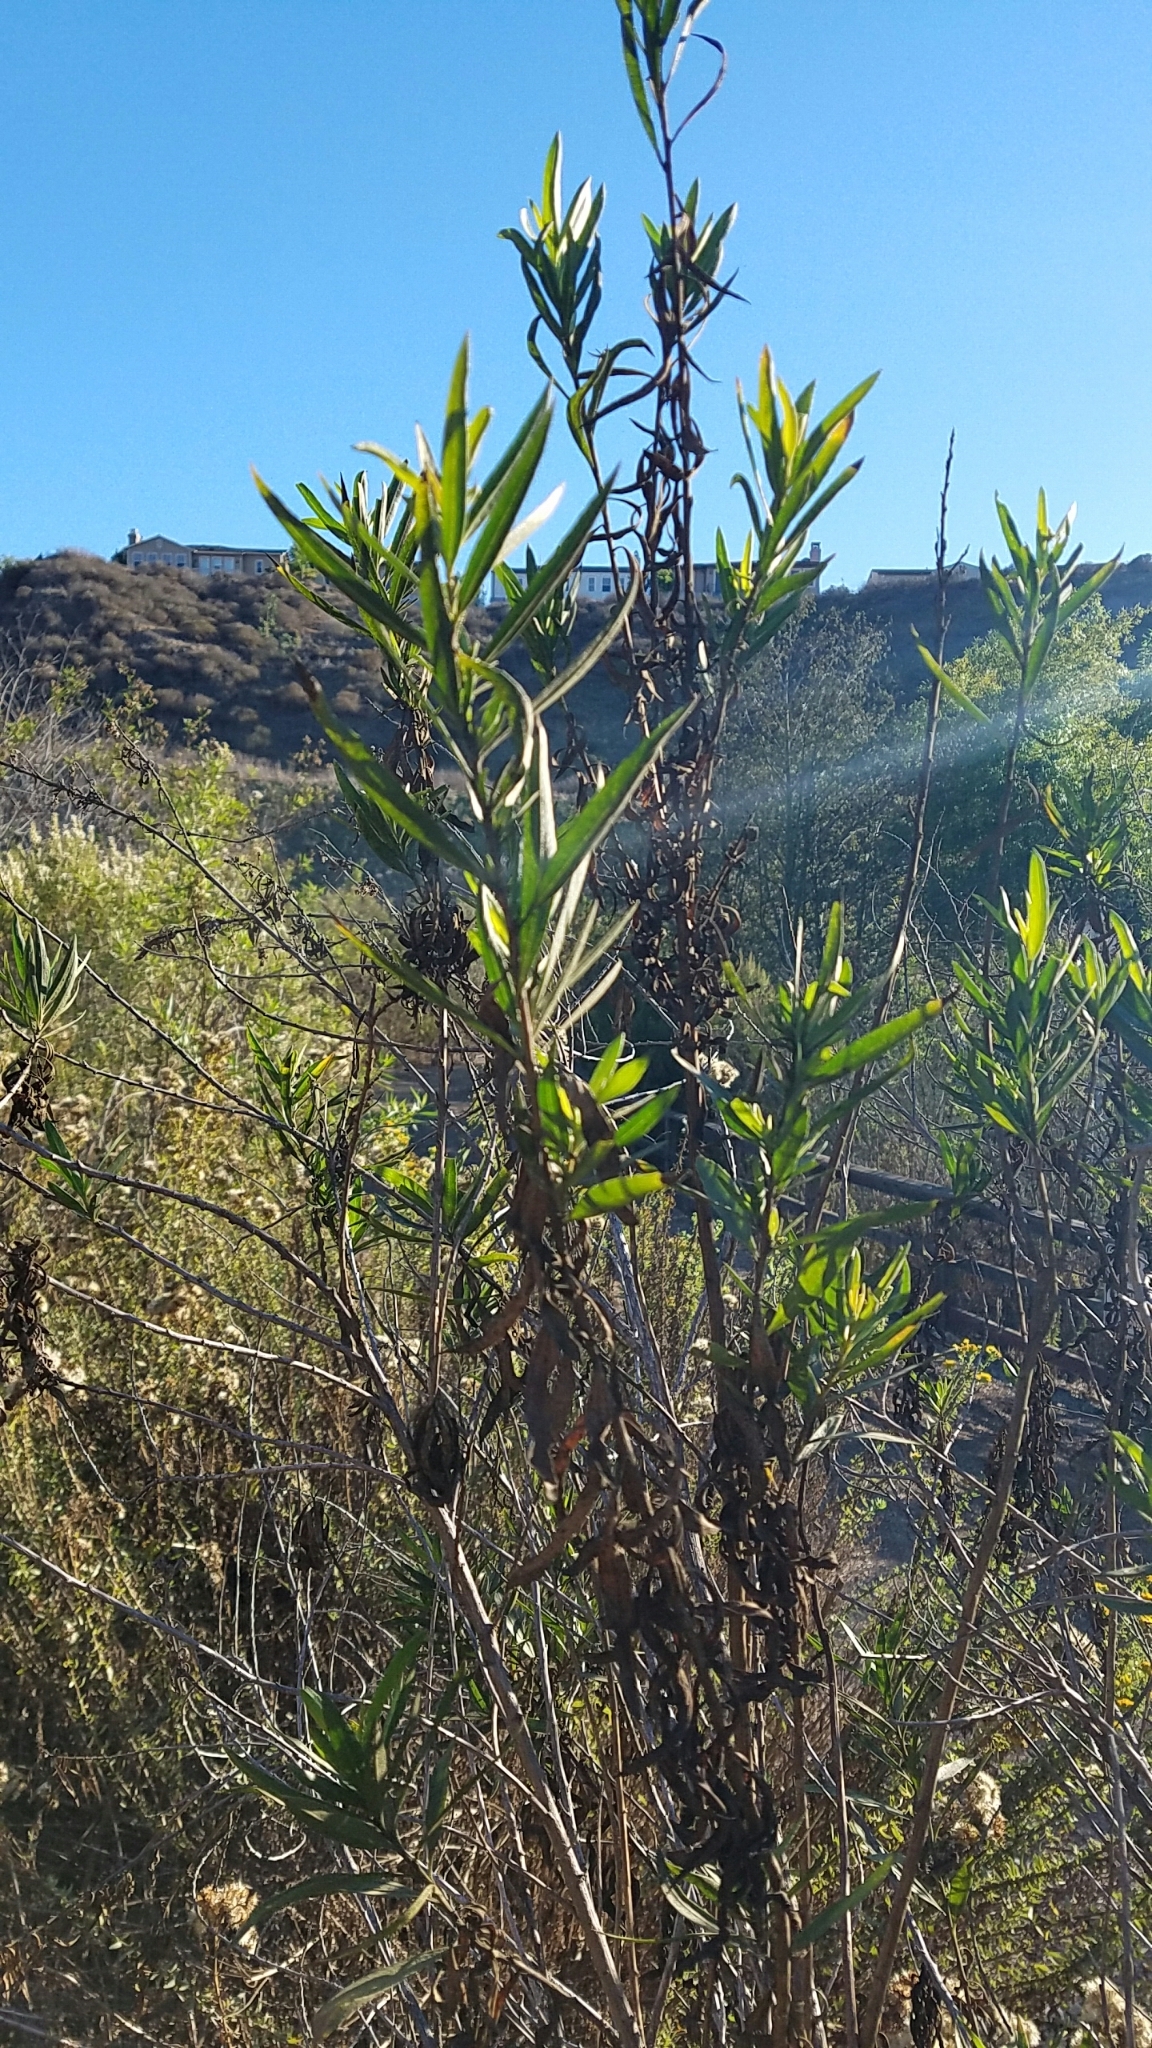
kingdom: Plantae
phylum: Tracheophyta
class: Magnoliopsida
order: Asterales
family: Asteraceae
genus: Baccharis
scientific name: Baccharis salicifolia
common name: Sticky baccharis
